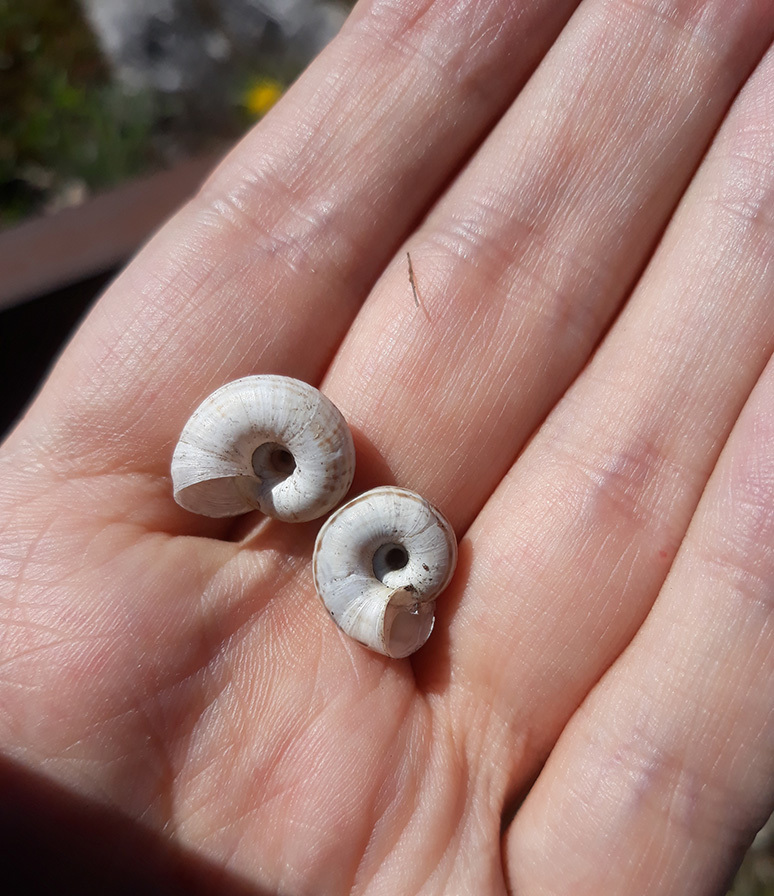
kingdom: Animalia
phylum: Mollusca
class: Gastropoda
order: Stylommatophora
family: Geomitridae
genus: Xerolenta
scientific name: Xerolenta obvia
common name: White heath snail
